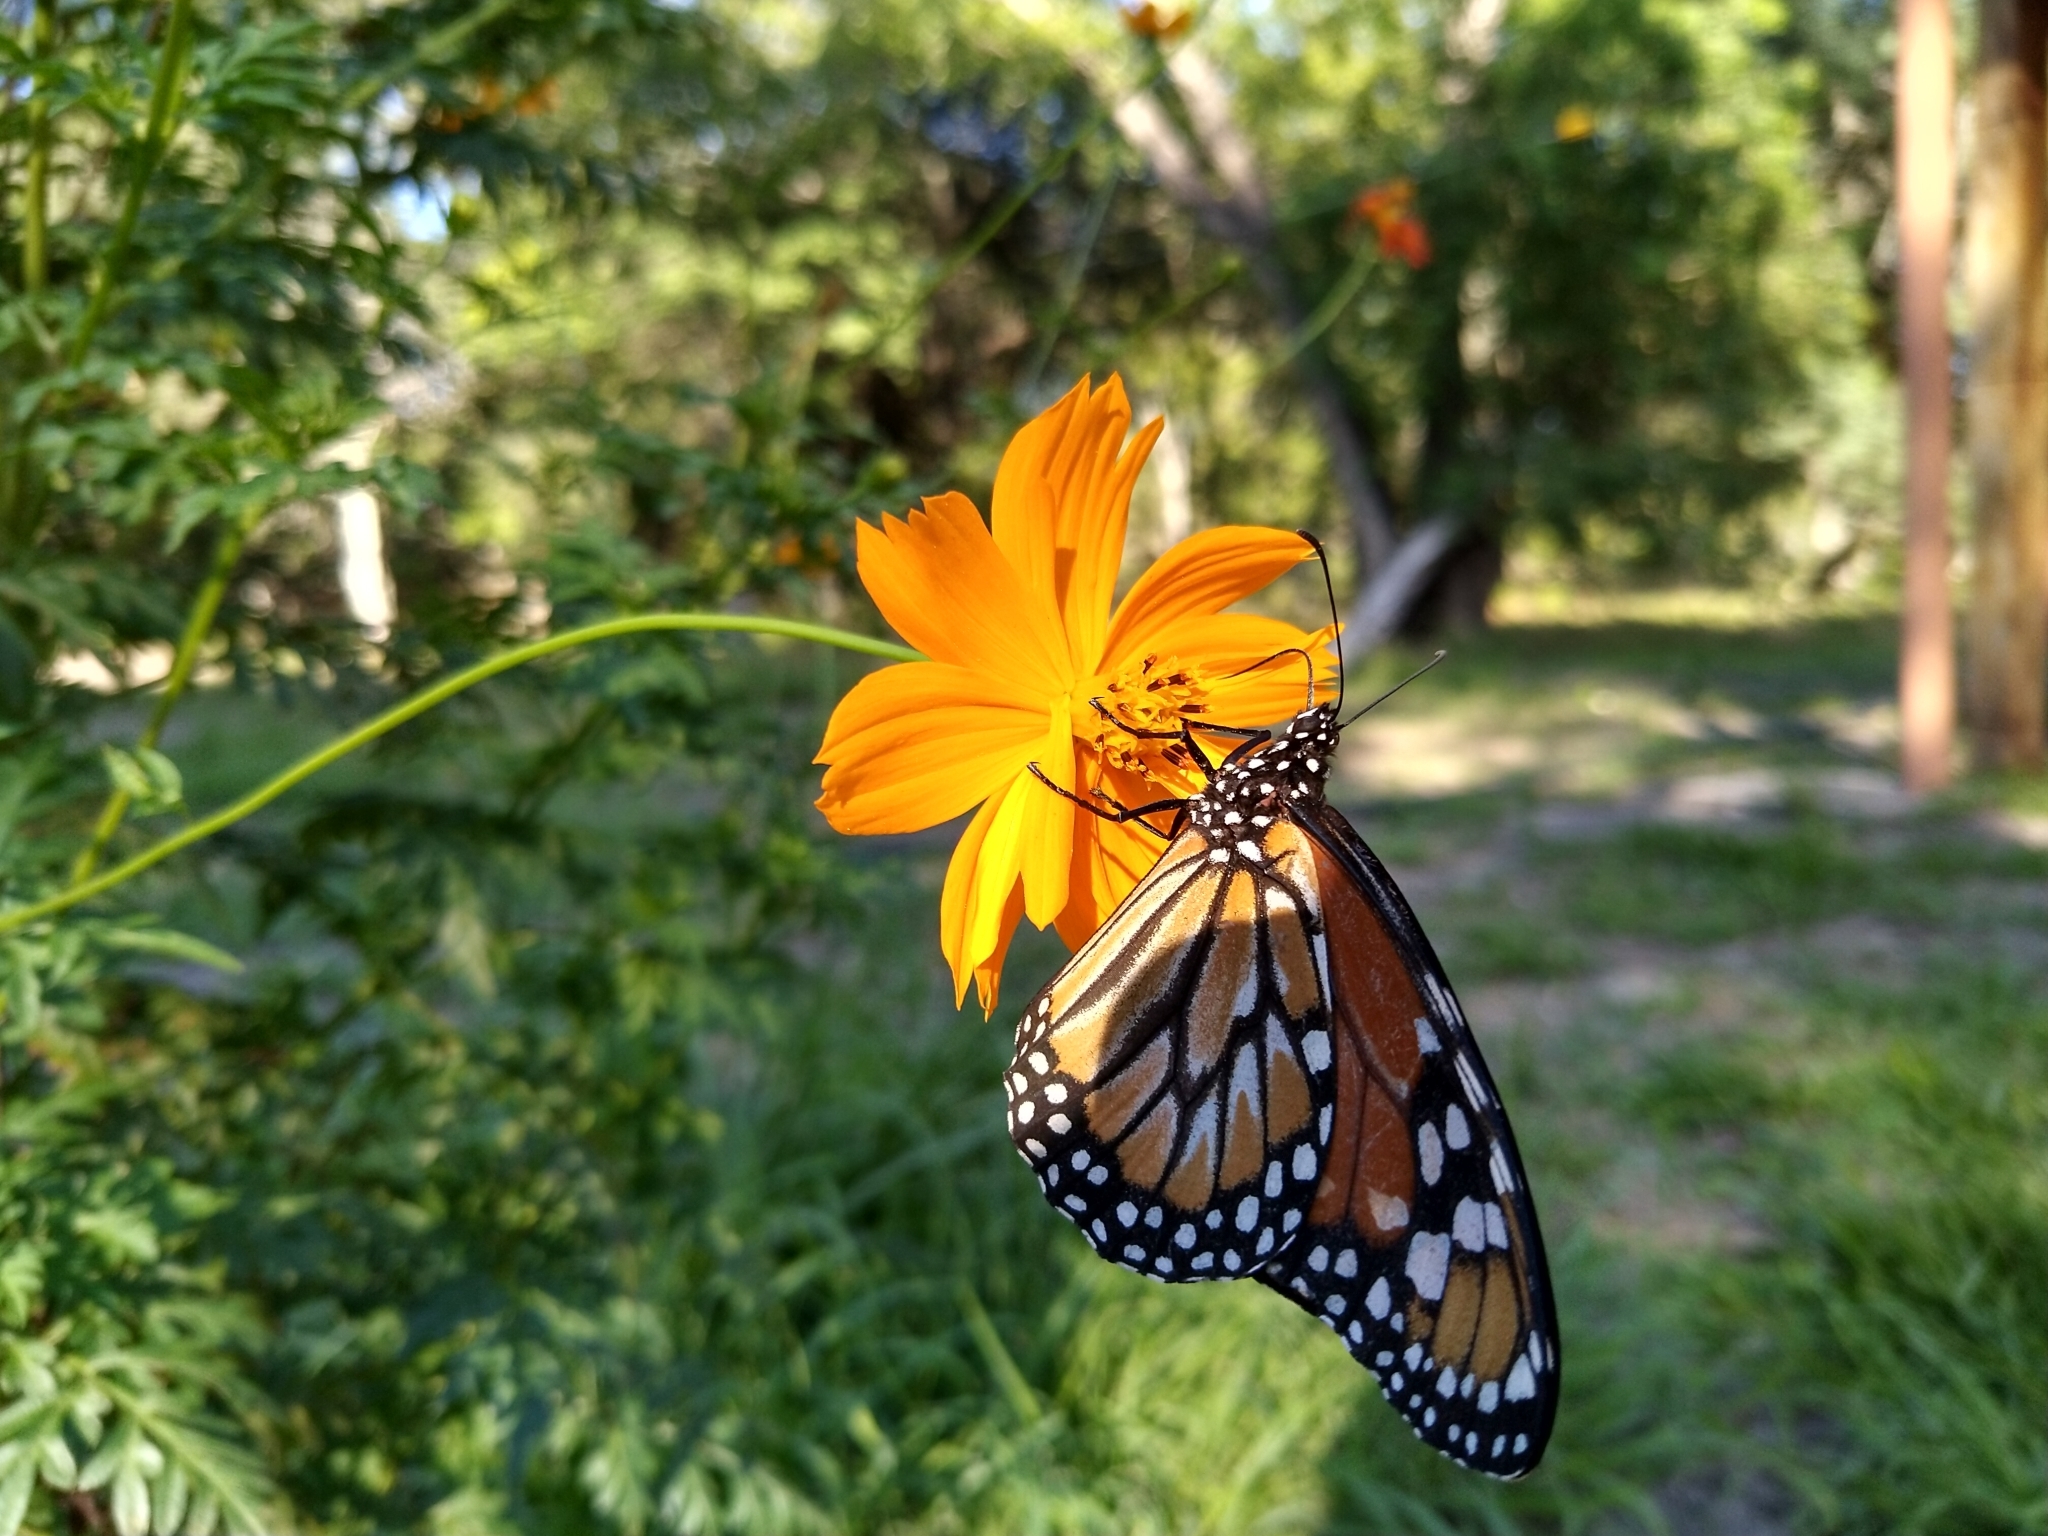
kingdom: Animalia
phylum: Arthropoda
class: Insecta
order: Lepidoptera
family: Nymphalidae
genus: Danaus
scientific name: Danaus erippus
